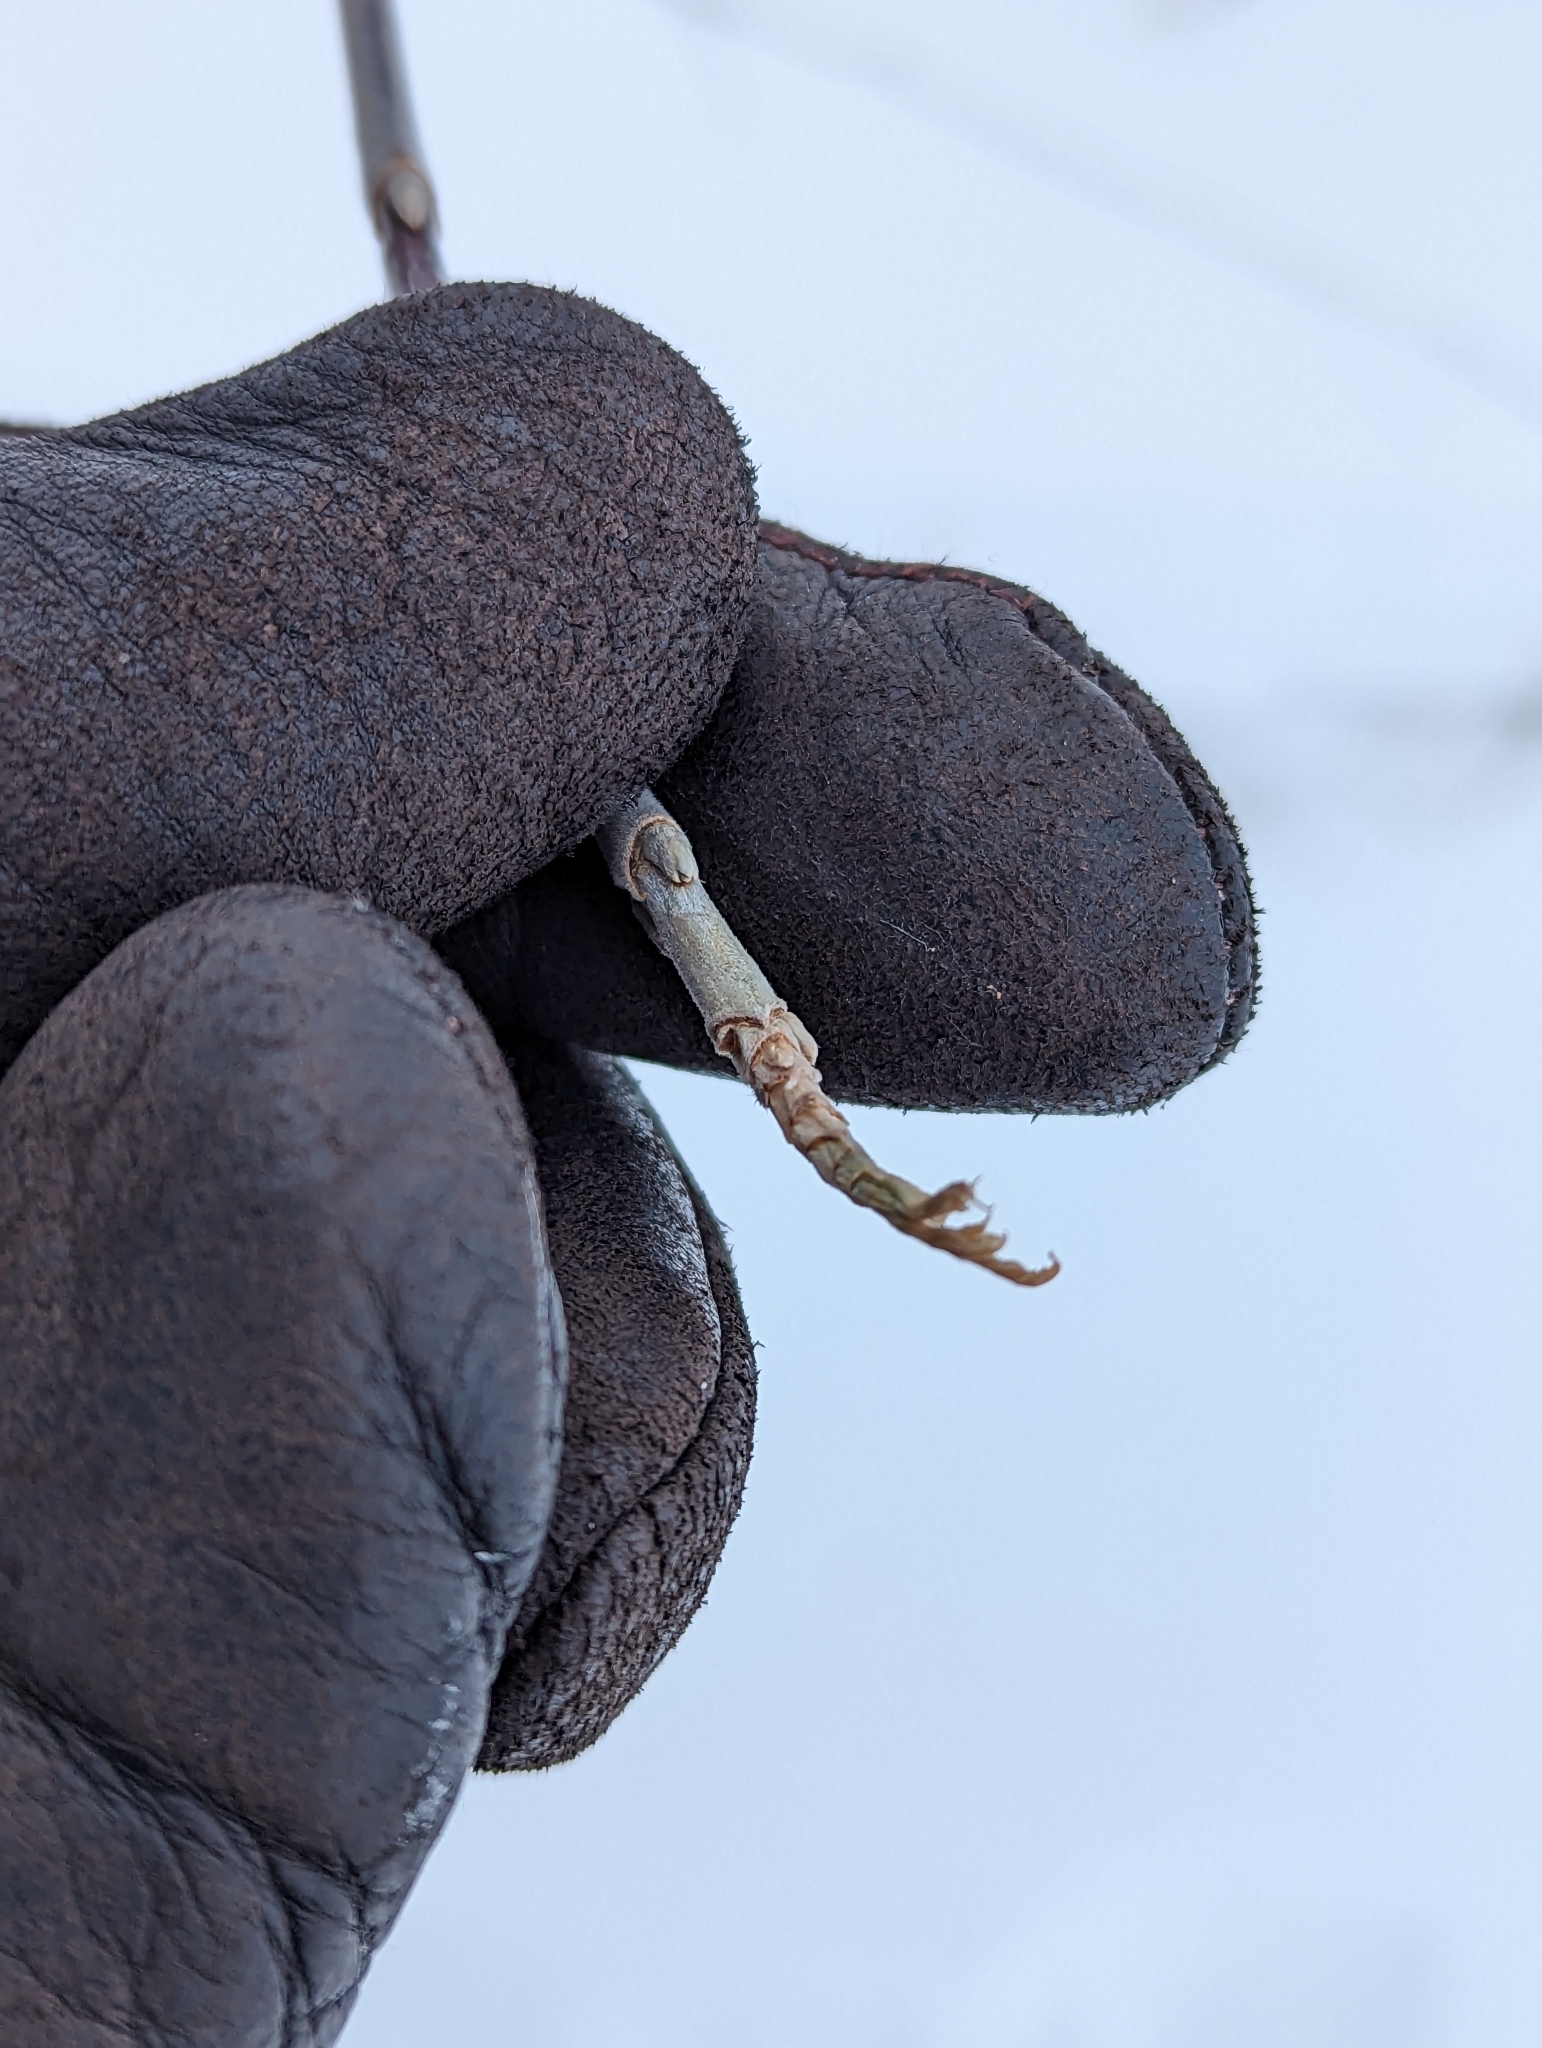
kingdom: Plantae
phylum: Tracheophyta
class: Magnoliopsida
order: Sapindales
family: Sapindaceae
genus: Acer
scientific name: Acer negundo
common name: Ashleaf maple
